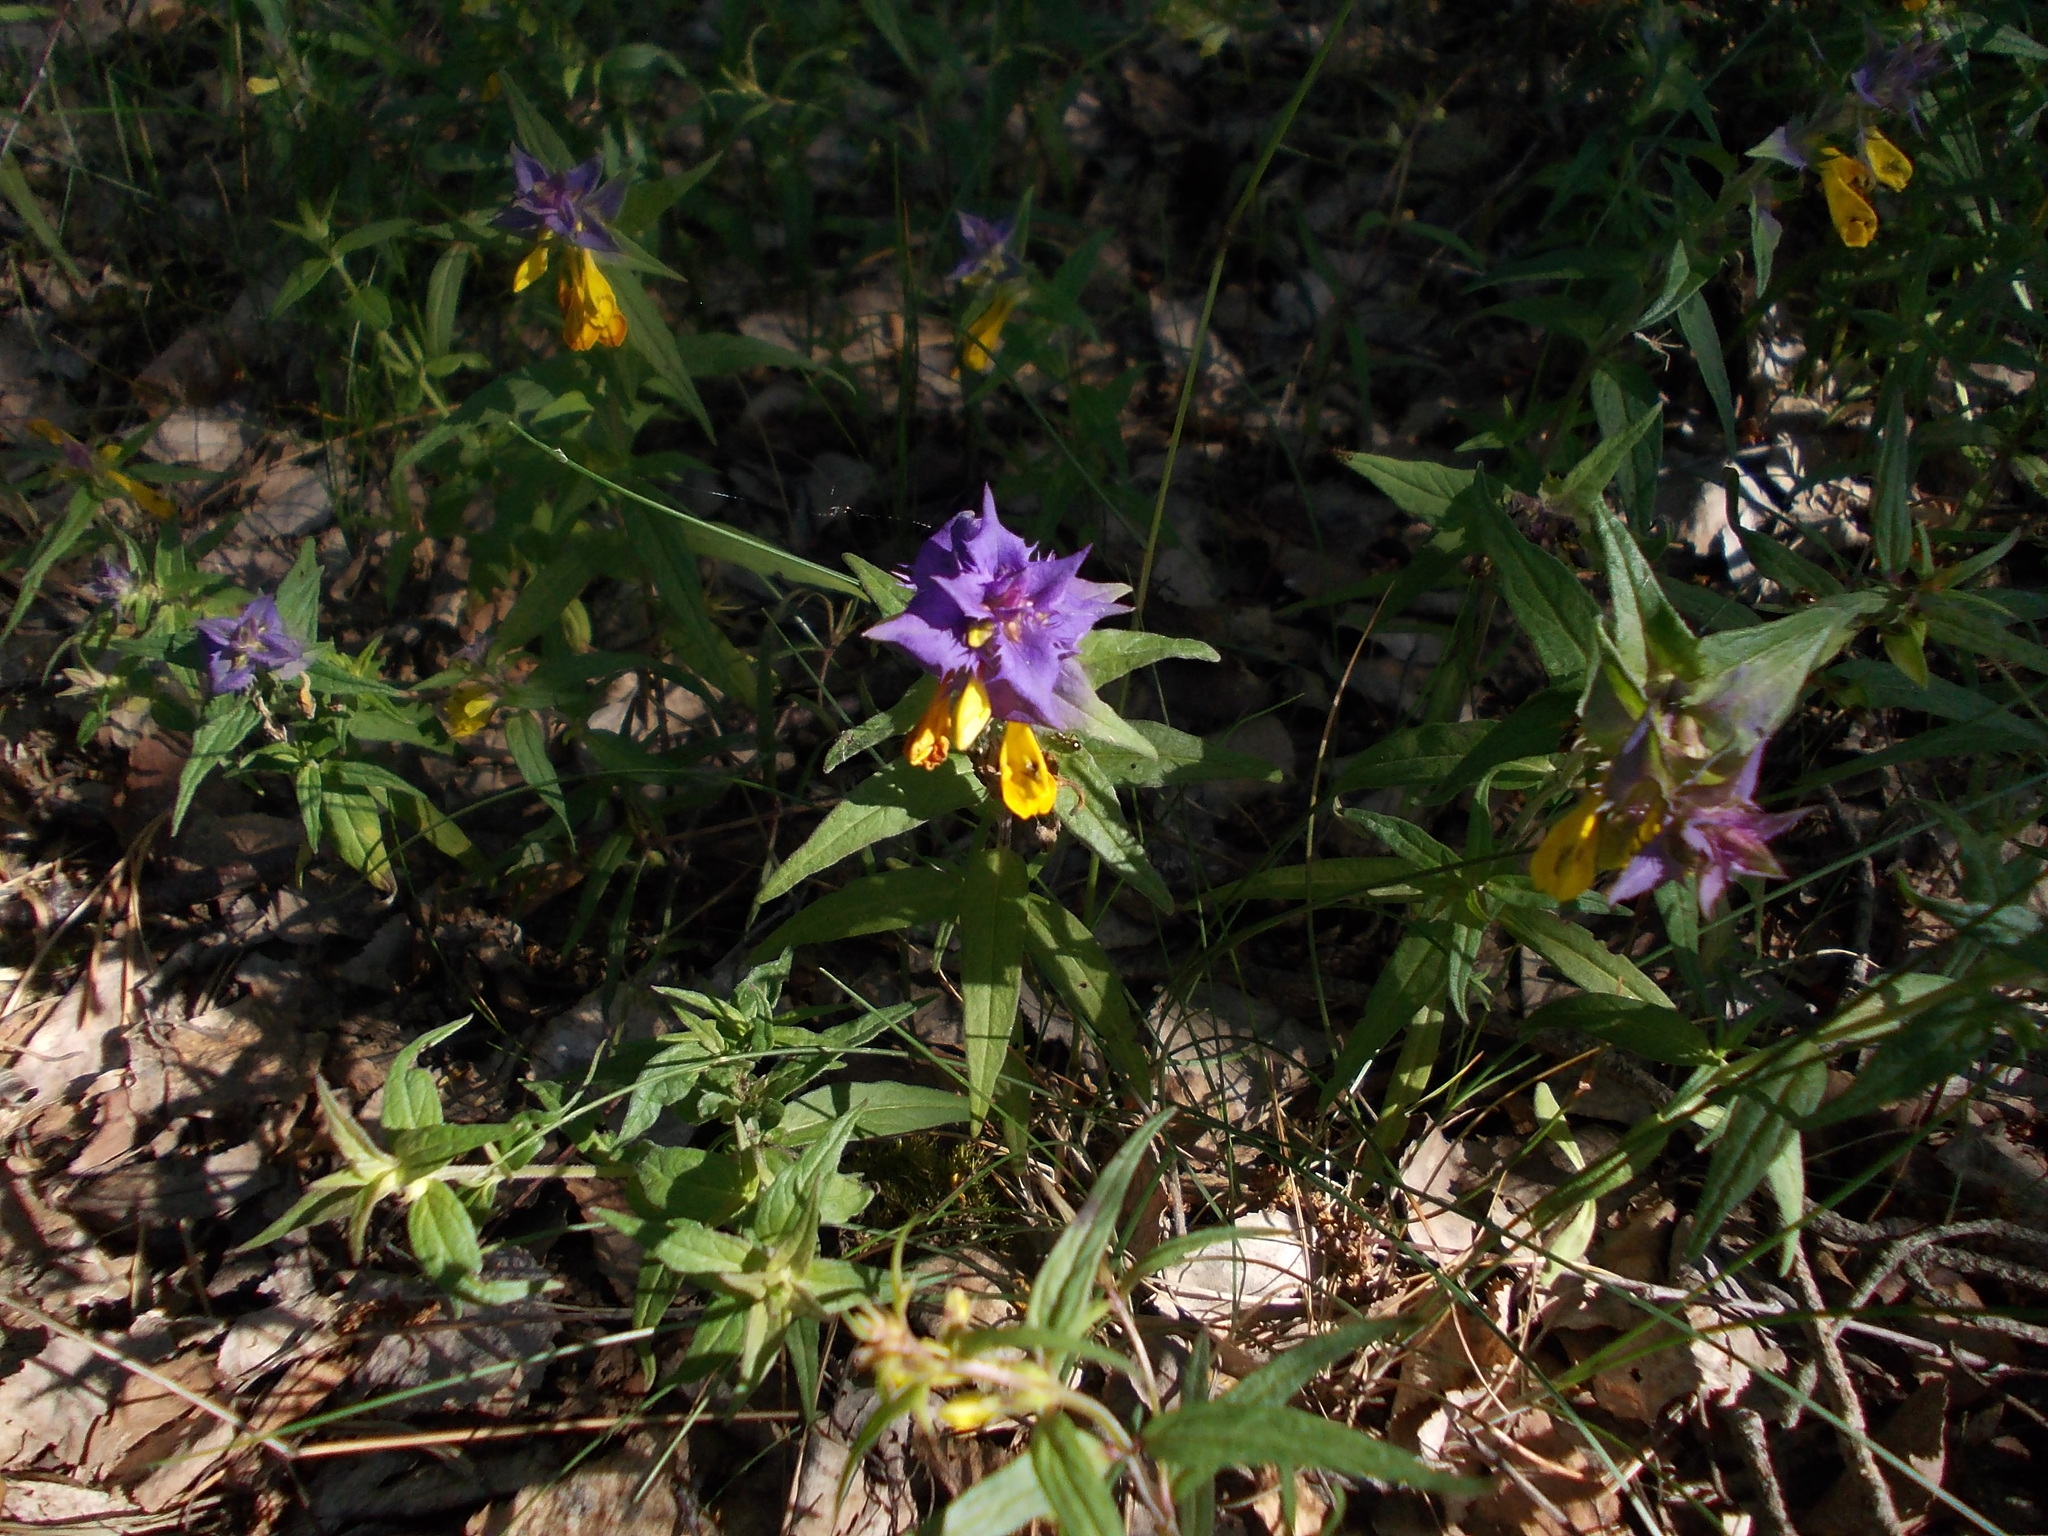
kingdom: Plantae
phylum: Tracheophyta
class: Magnoliopsida
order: Lamiales
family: Orobanchaceae
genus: Melampyrum
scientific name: Melampyrum nemorosum
